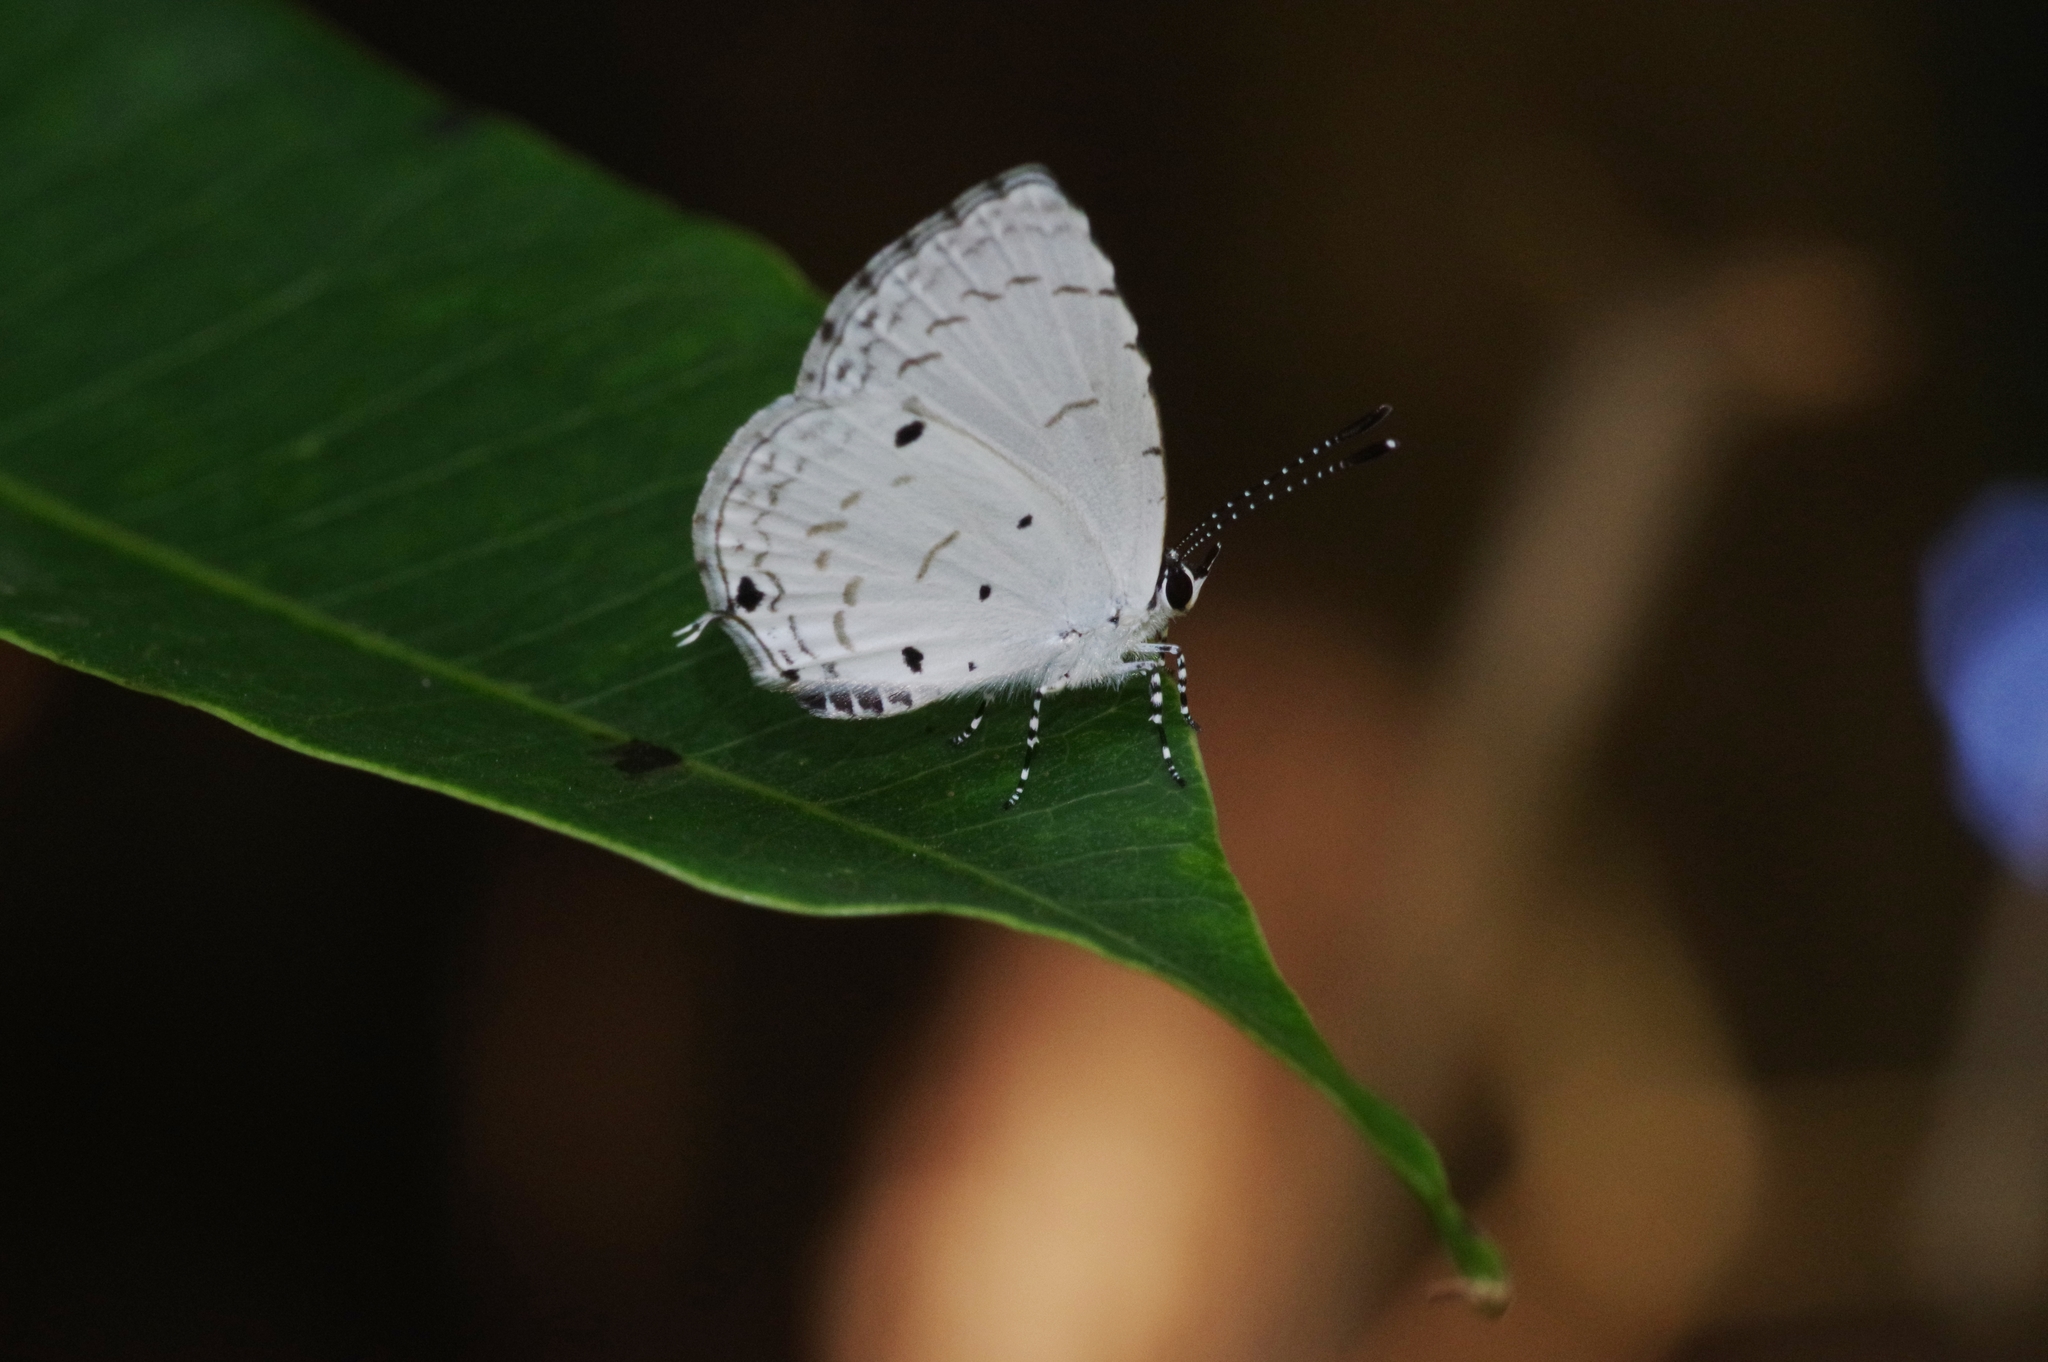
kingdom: Animalia
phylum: Arthropoda
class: Insecta
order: Lepidoptera
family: Lycaenidae
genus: Megisba
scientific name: Megisba malaya
